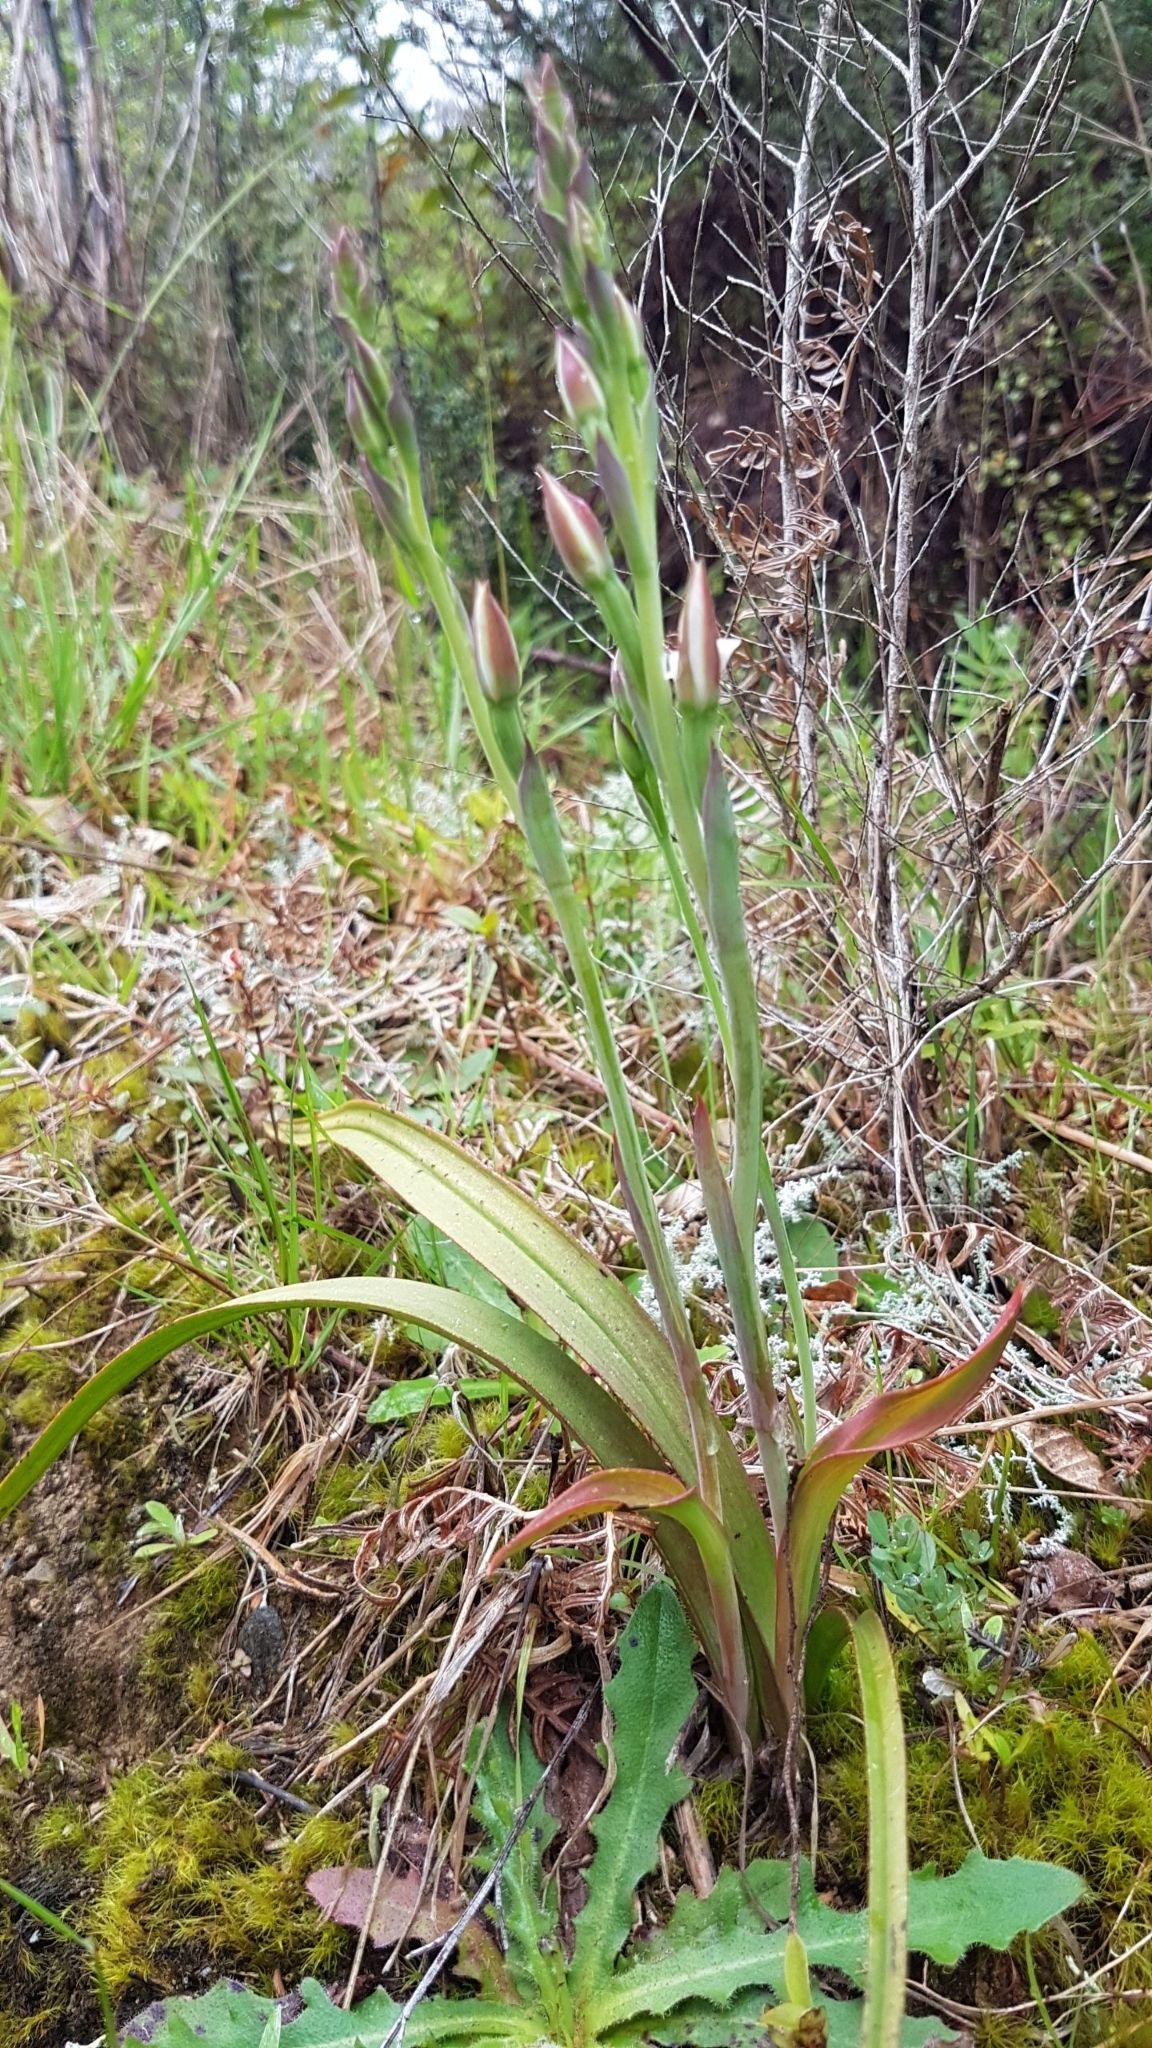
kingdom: Plantae
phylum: Tracheophyta
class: Liliopsida
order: Asparagales
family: Orchidaceae
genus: Thelymitra
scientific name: Thelymitra longifolia
